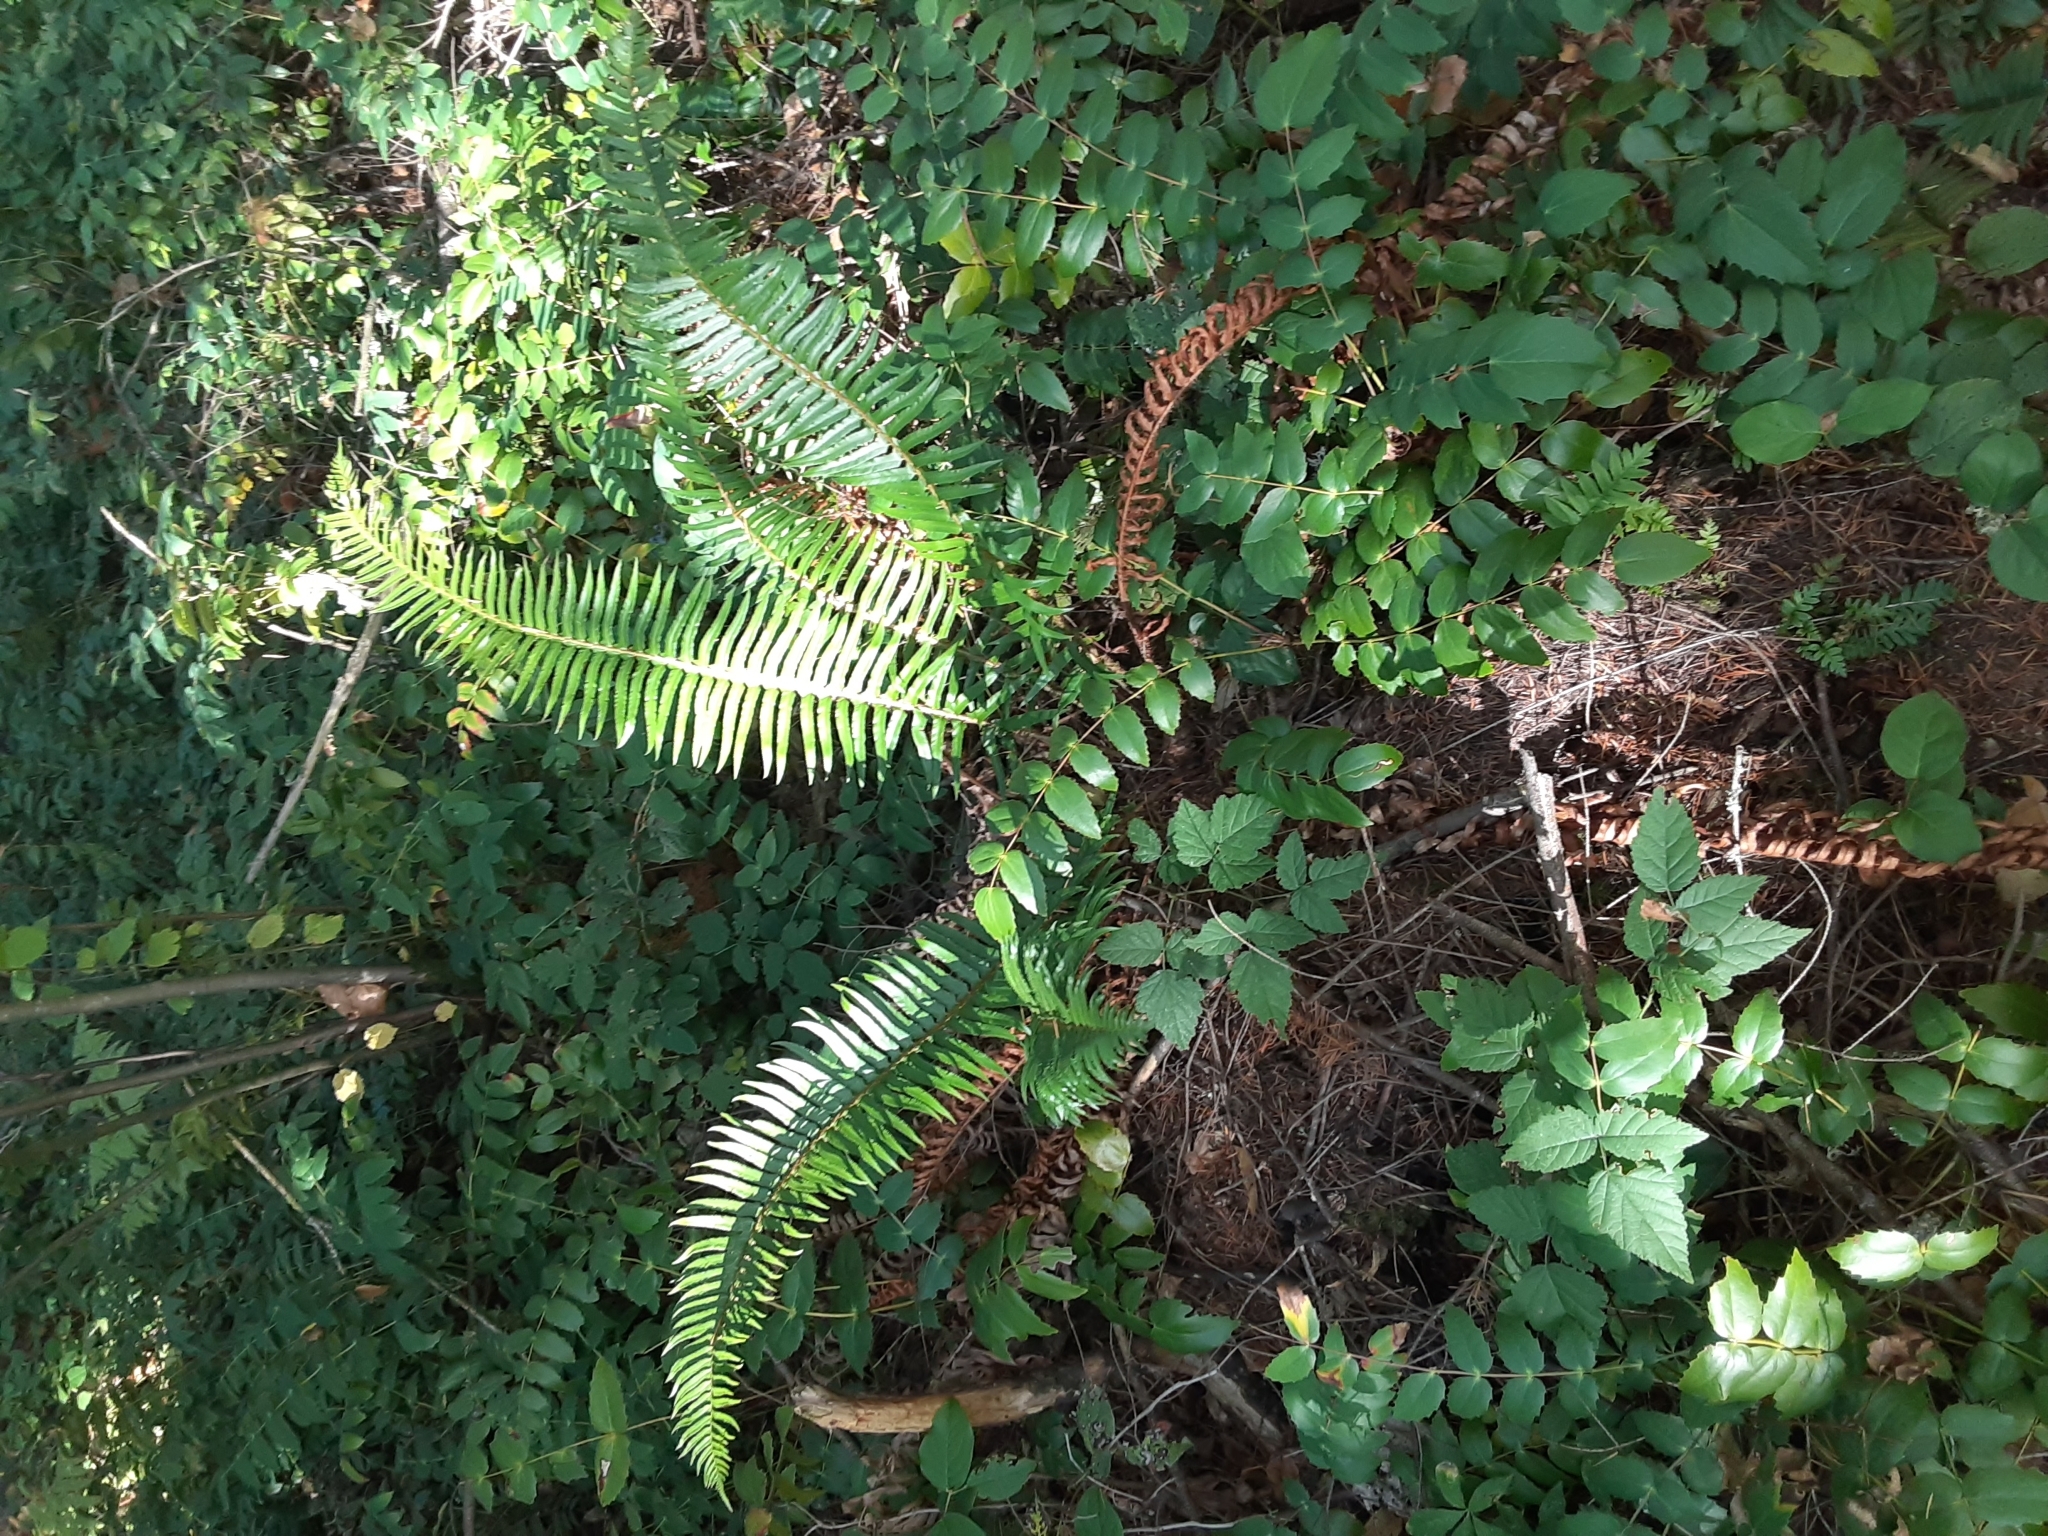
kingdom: Plantae
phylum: Tracheophyta
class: Polypodiopsida
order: Polypodiales
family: Dryopteridaceae
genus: Polystichum
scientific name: Polystichum munitum
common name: Western sword-fern
